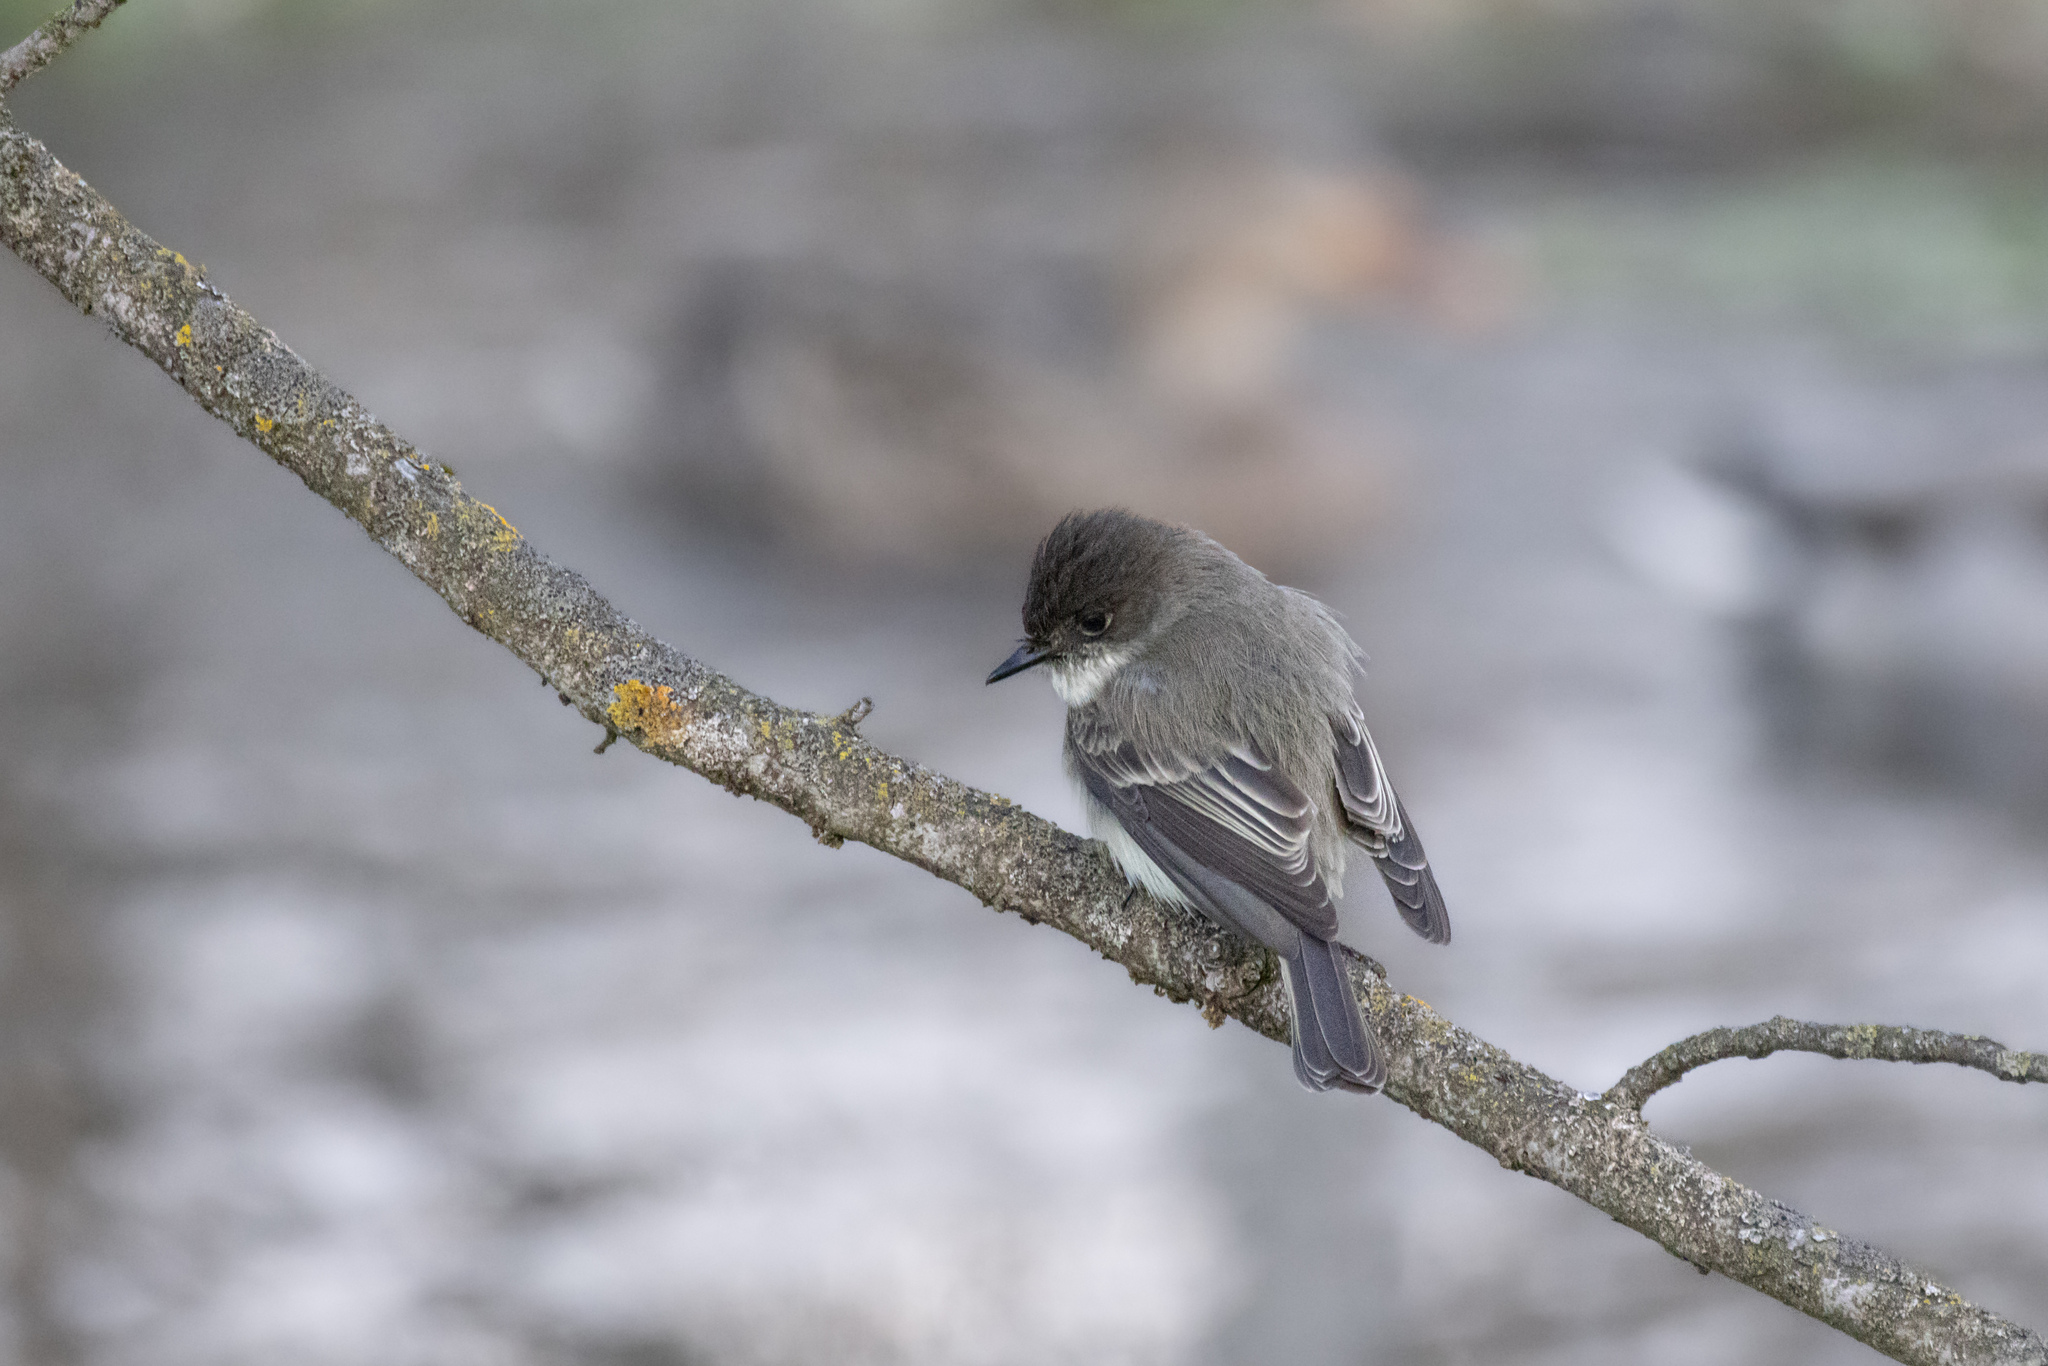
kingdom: Animalia
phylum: Chordata
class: Aves
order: Passeriformes
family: Tyrannidae
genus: Sayornis
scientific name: Sayornis phoebe
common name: Eastern phoebe
